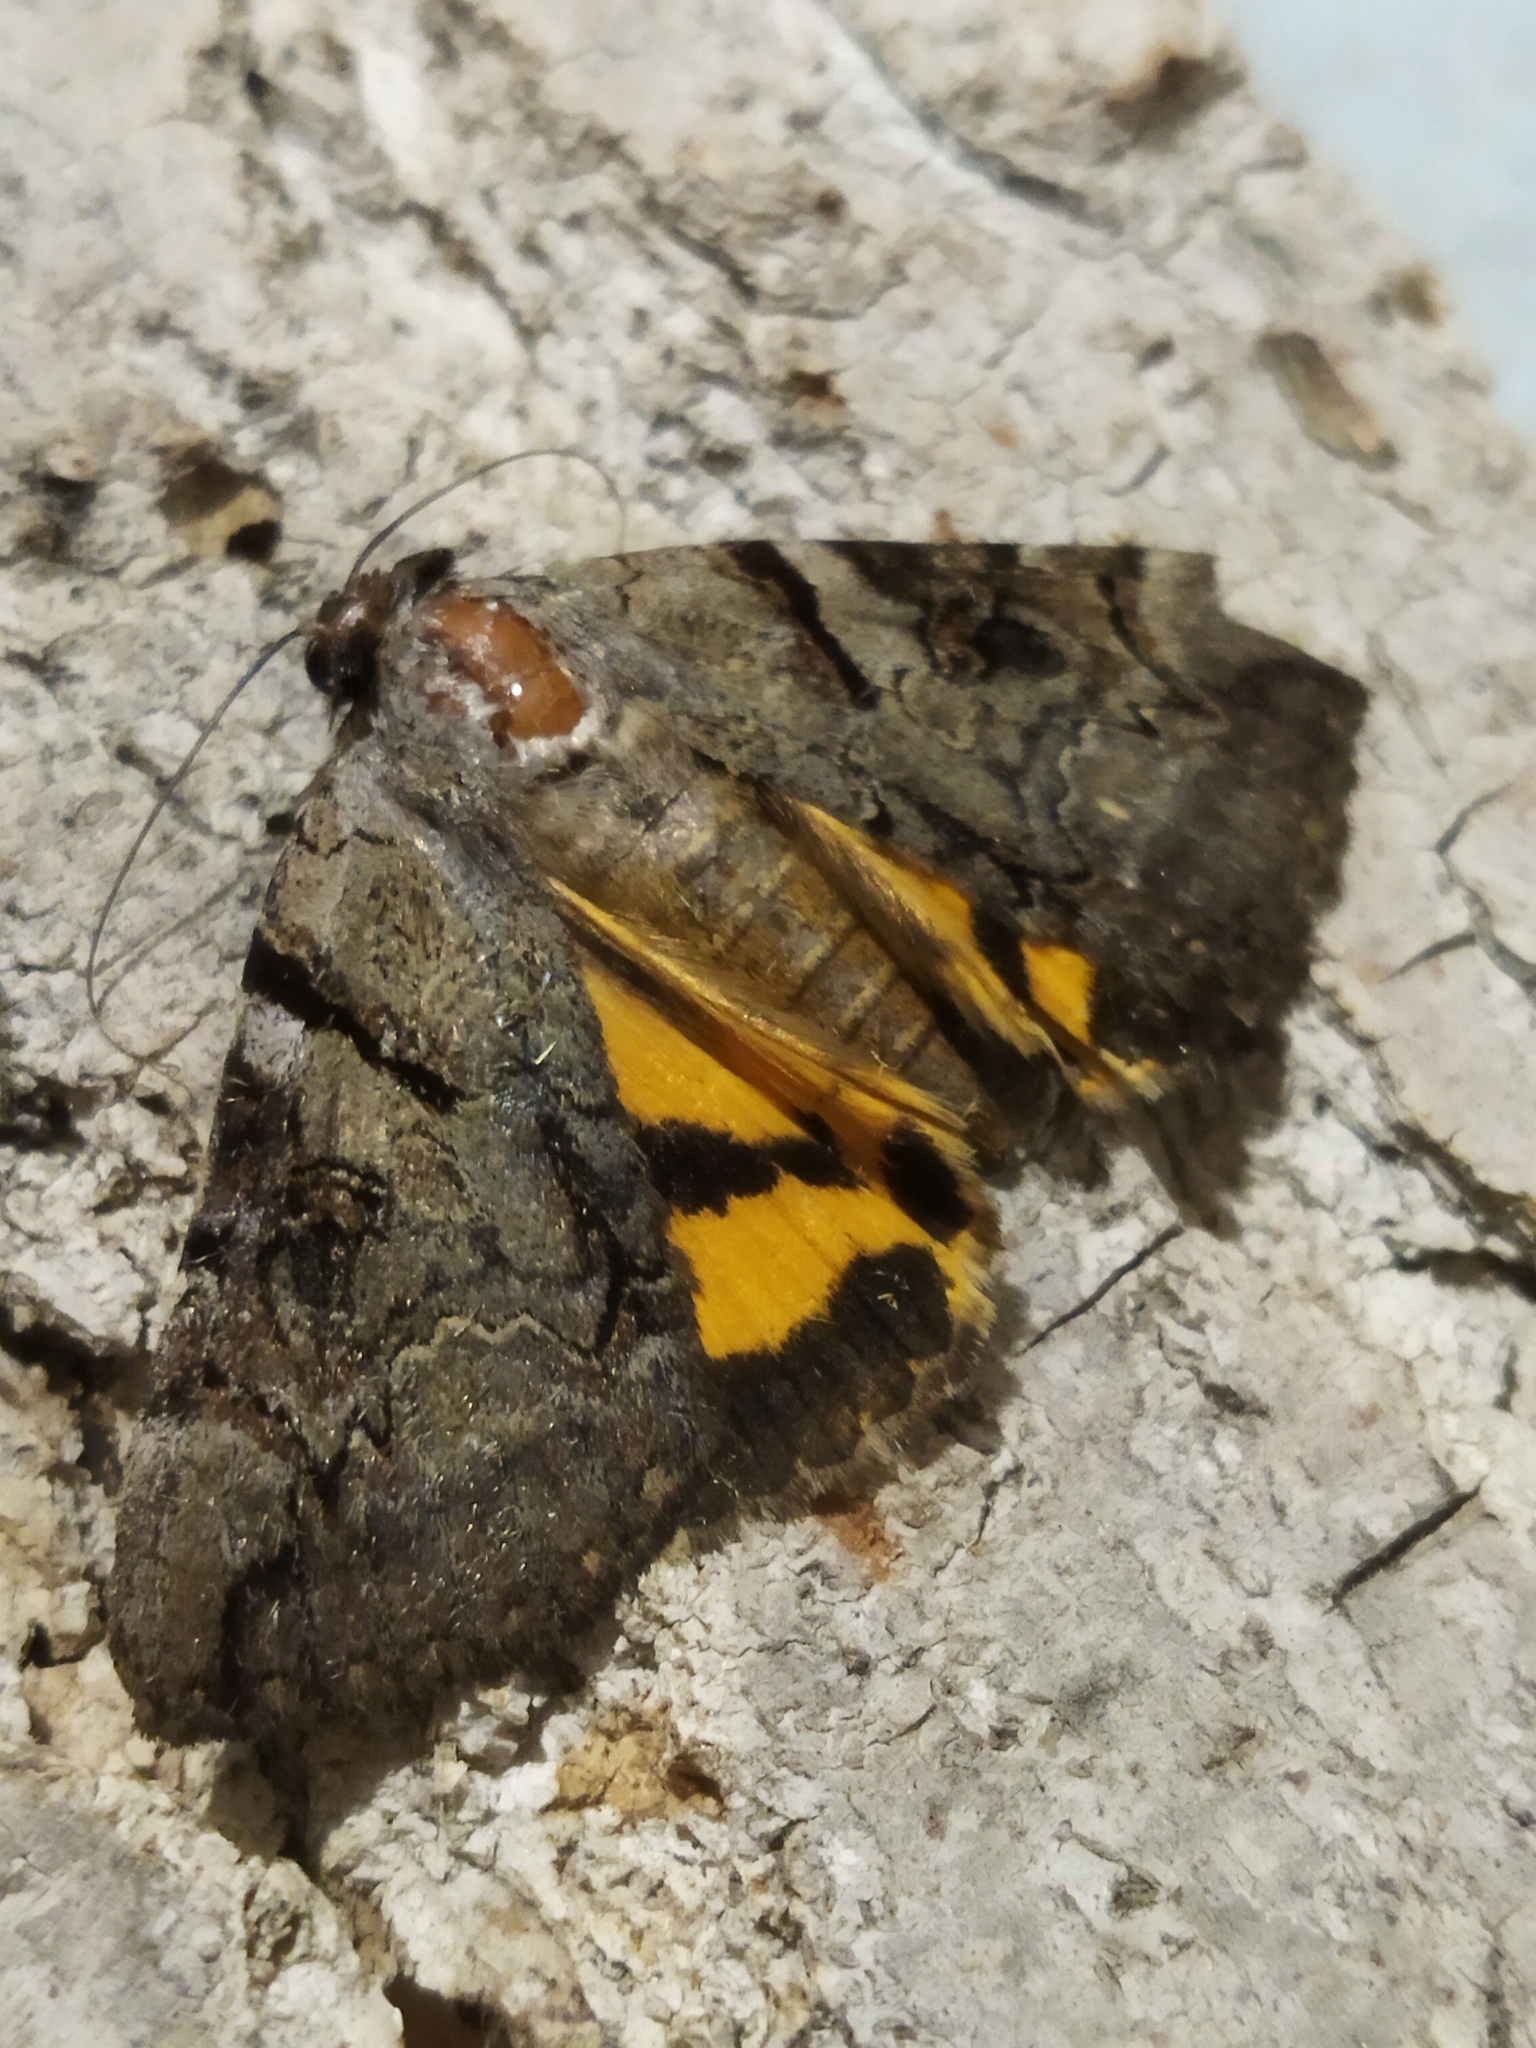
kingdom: Animalia
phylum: Arthropoda
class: Insecta
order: Lepidoptera
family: Erebidae
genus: Catocala
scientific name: Catocala hymenaea
